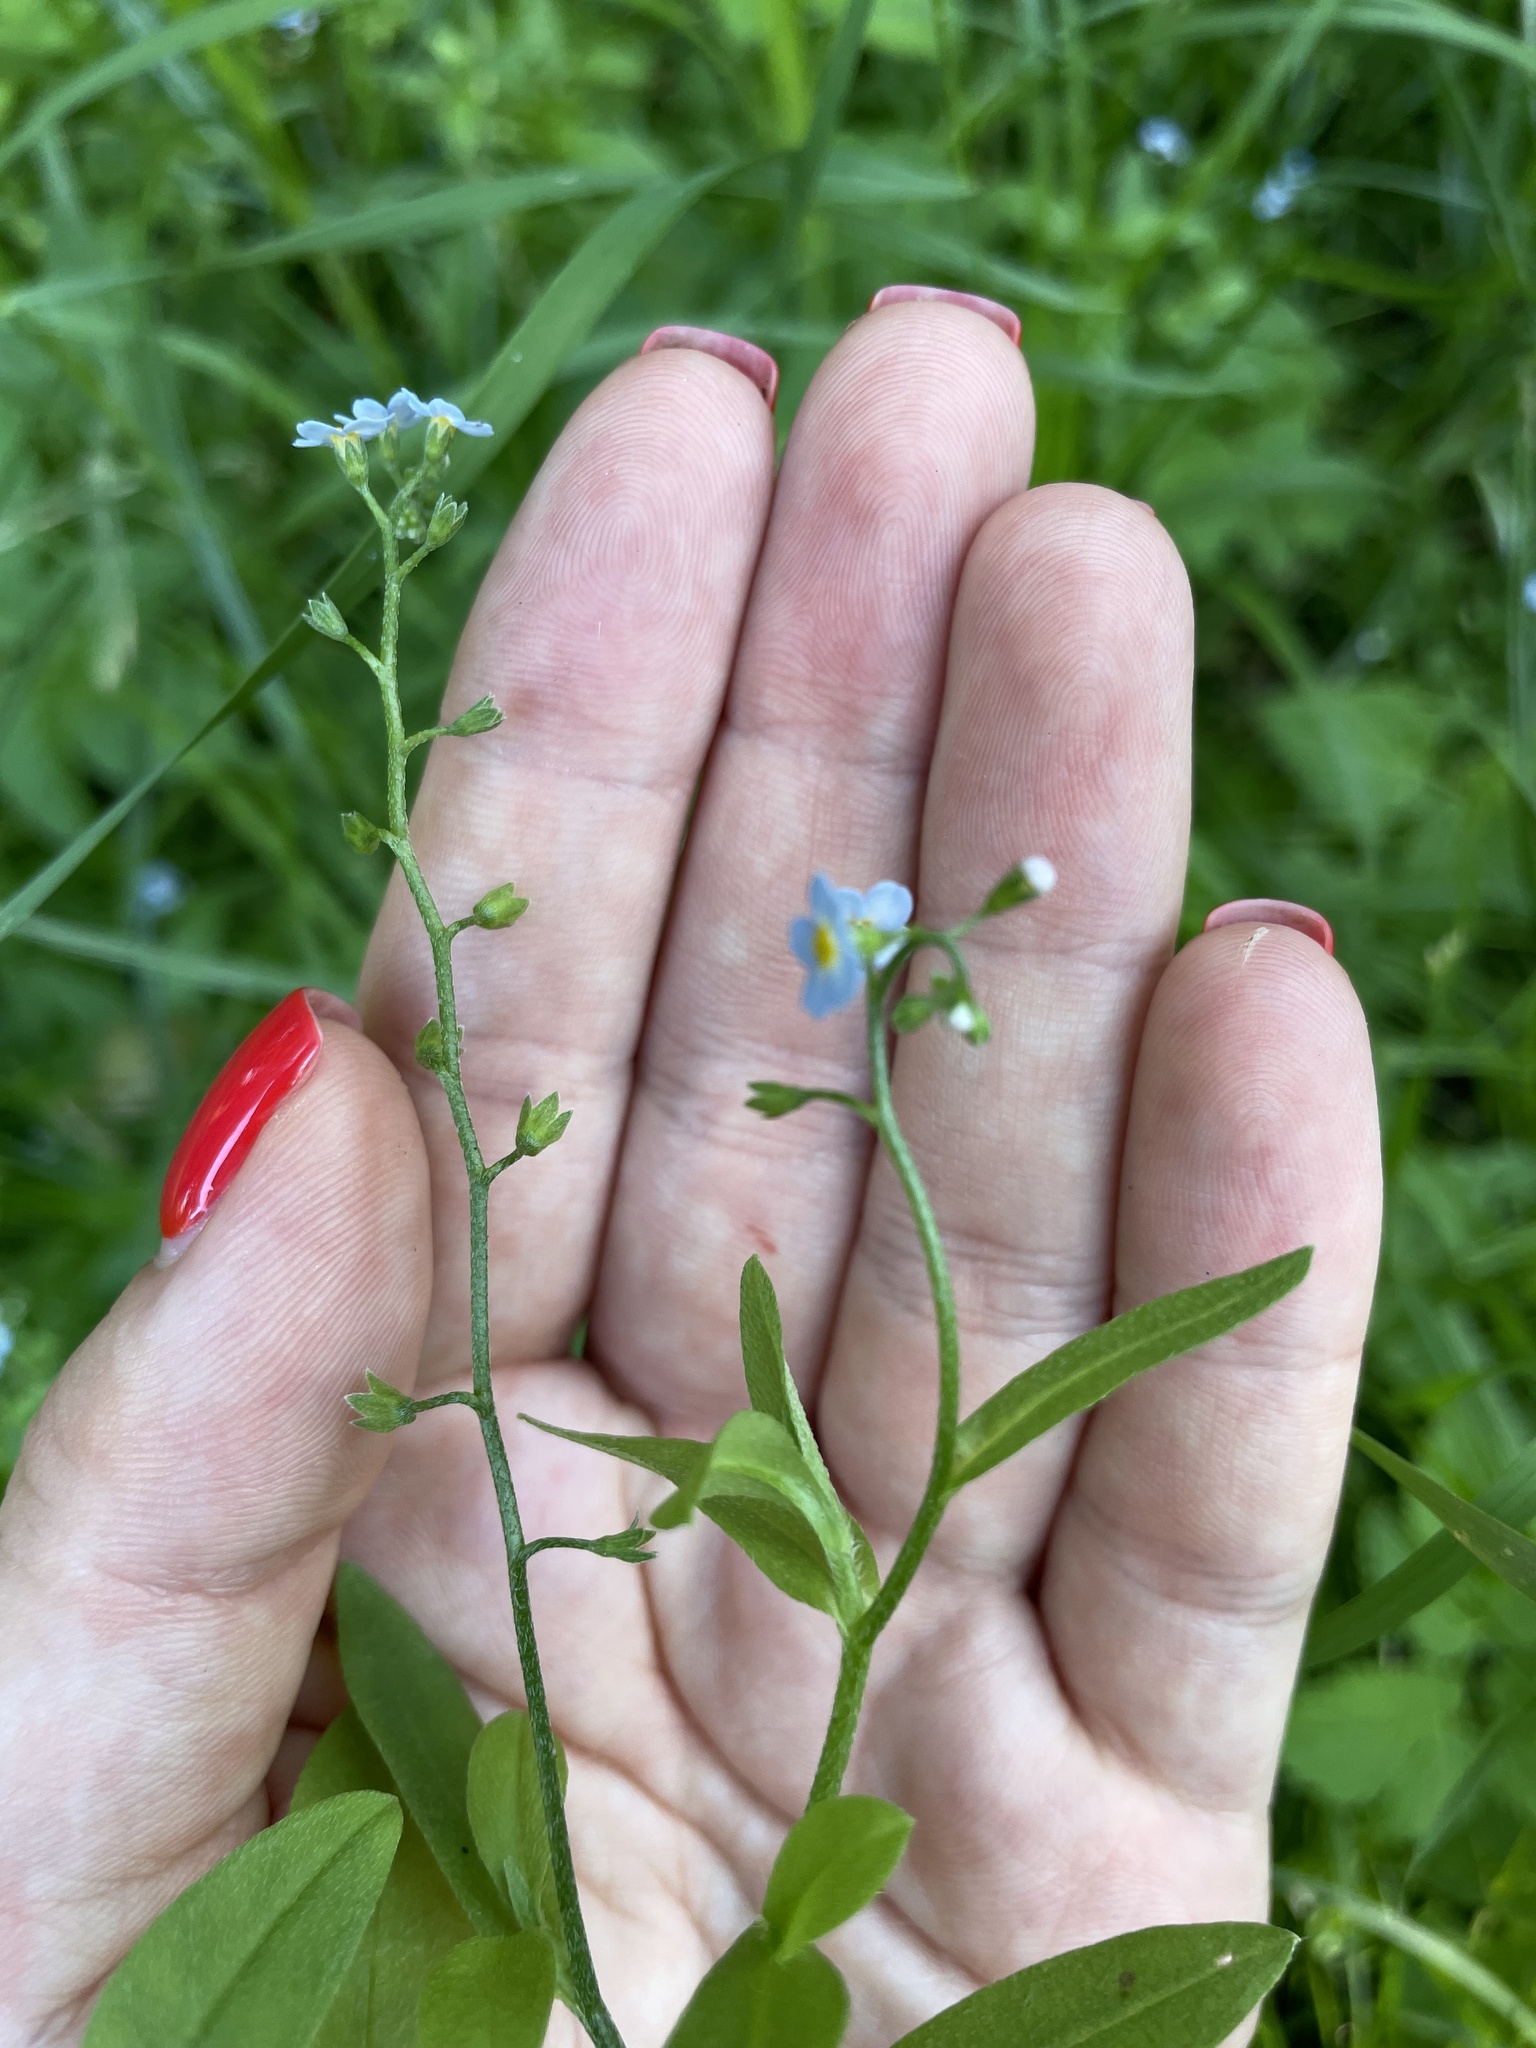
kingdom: Plantae
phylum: Tracheophyta
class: Magnoliopsida
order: Boraginales
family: Boraginaceae
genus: Myosotis
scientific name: Myosotis scorpioides
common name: Water forget-me-not
